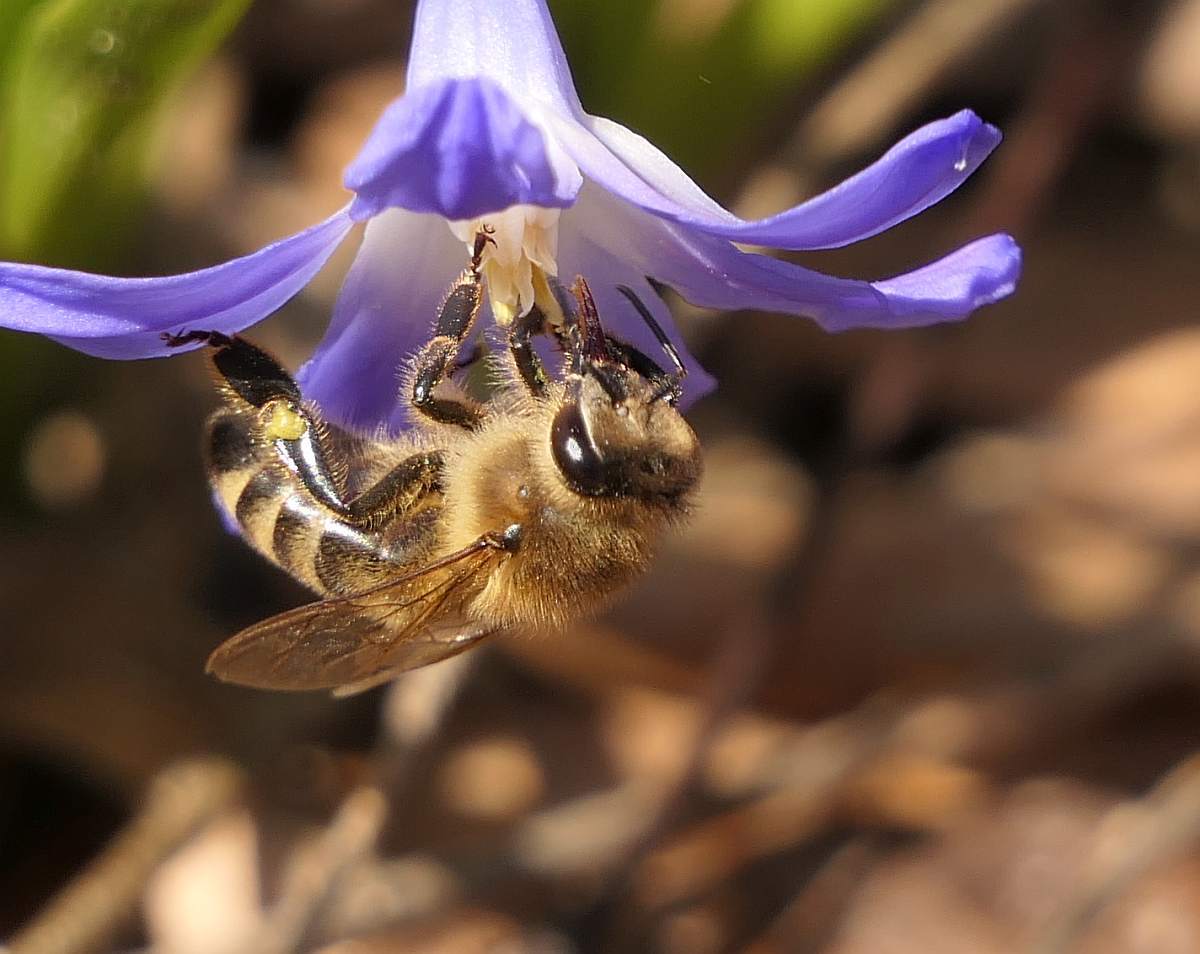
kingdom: Animalia
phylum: Arthropoda
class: Insecta
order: Hymenoptera
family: Apidae
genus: Apis
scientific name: Apis mellifera
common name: Honey bee
